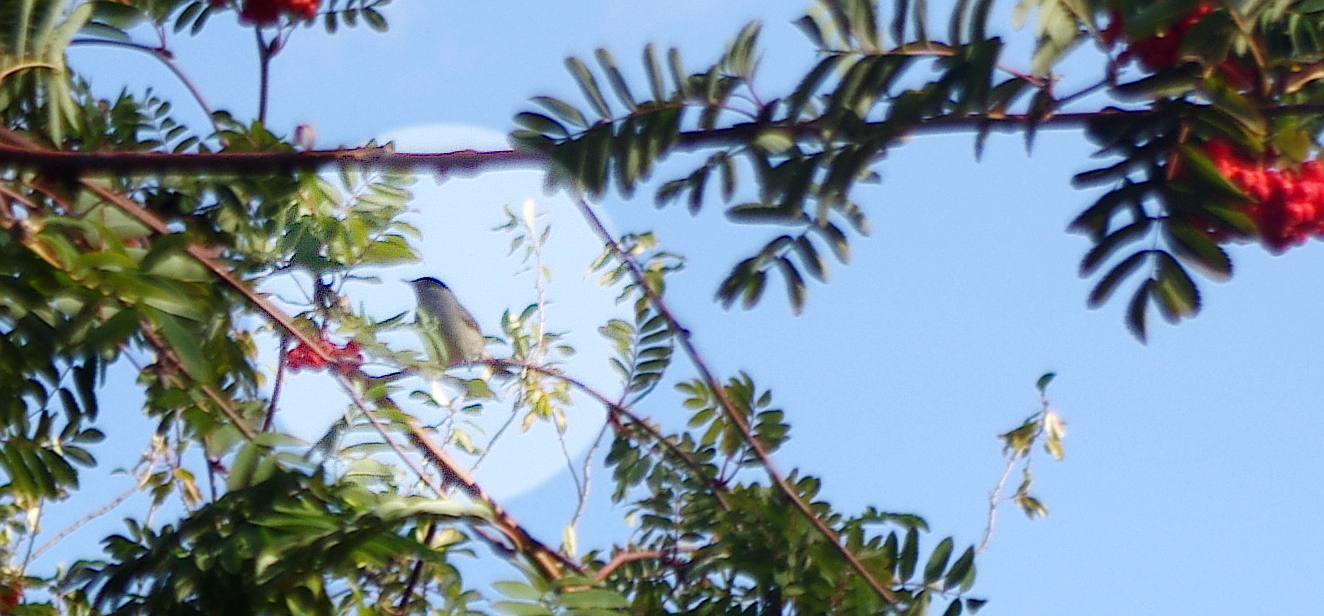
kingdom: Animalia
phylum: Chordata
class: Aves
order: Passeriformes
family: Sylviidae
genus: Sylvia
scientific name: Sylvia atricapilla
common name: Eurasian blackcap
